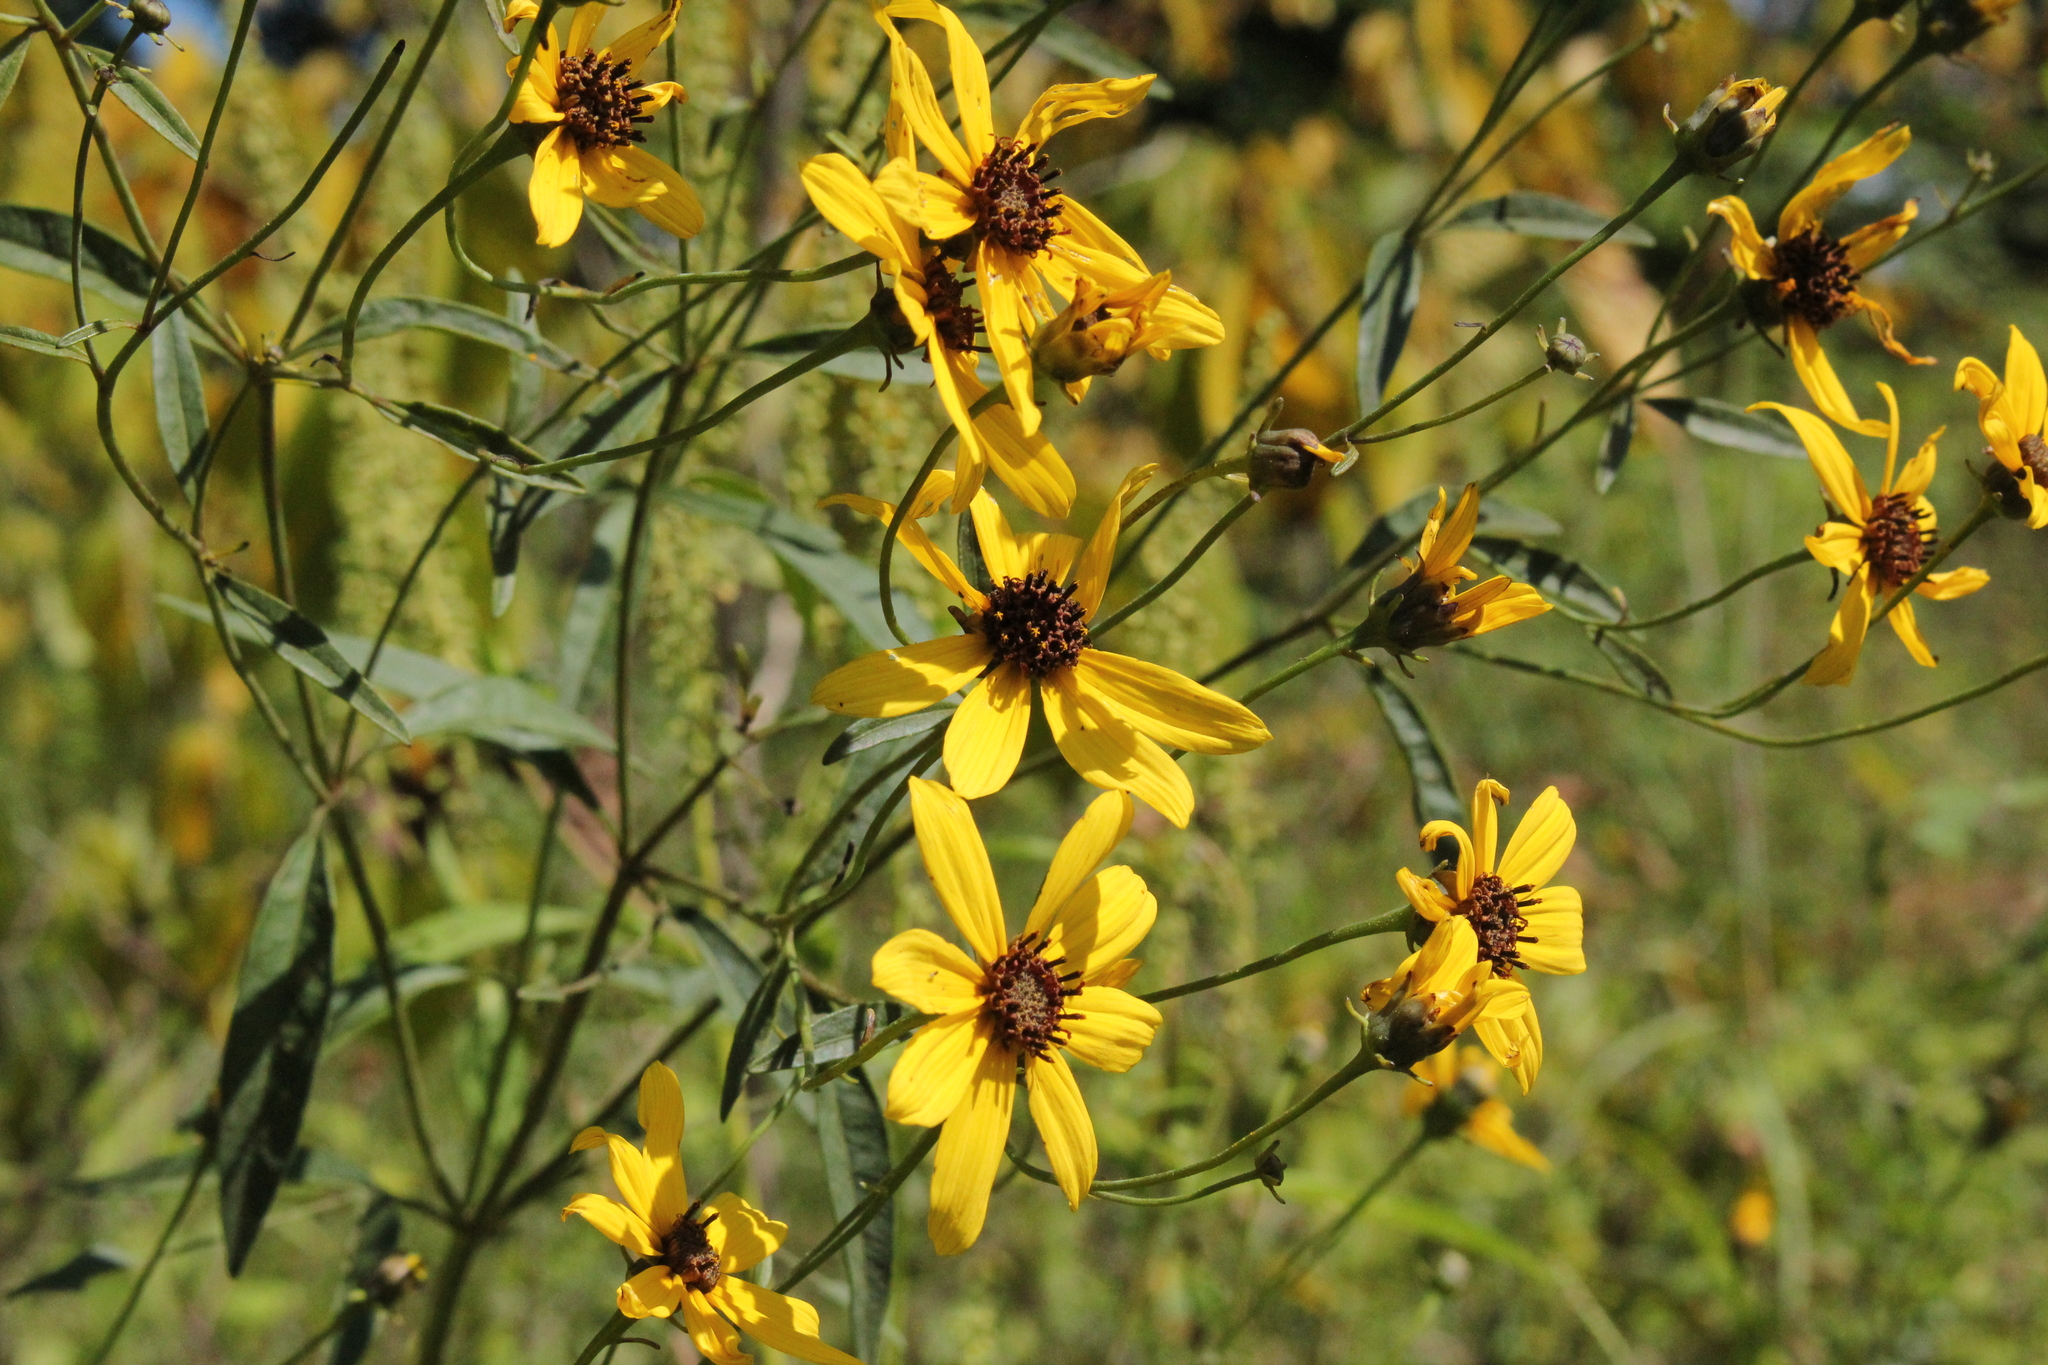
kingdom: Plantae
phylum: Tracheophyta
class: Magnoliopsida
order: Asterales
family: Asteraceae
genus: Coreopsis
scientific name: Coreopsis tripteris
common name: Tall coreopsis
